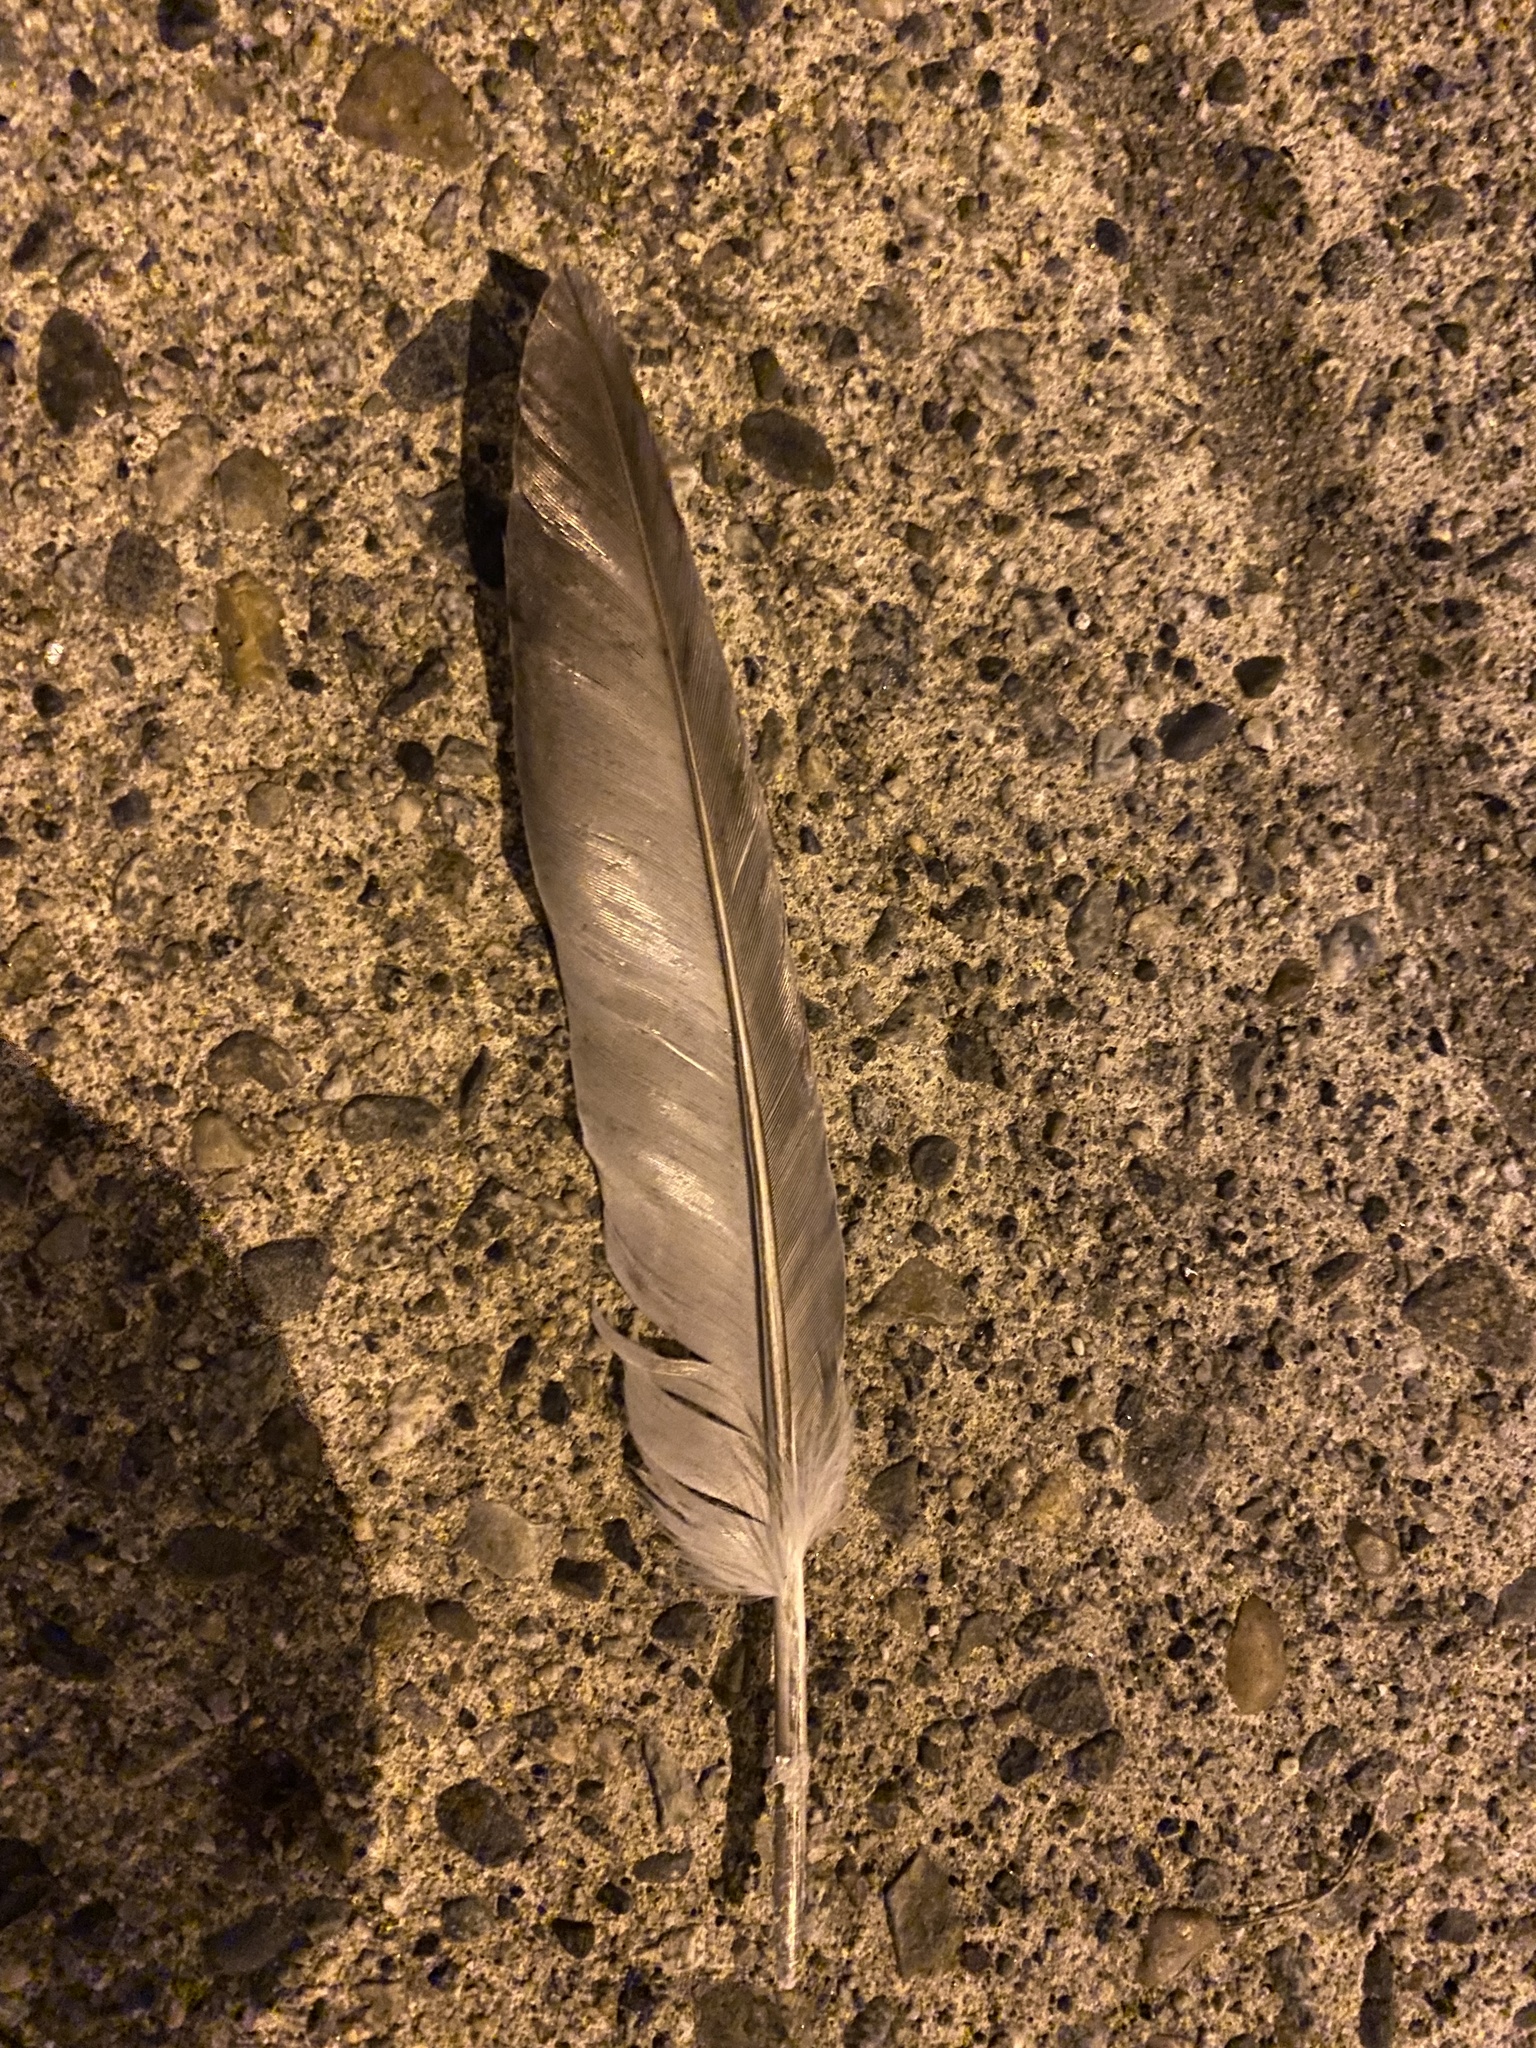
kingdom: Animalia
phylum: Chordata
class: Aves
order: Columbiformes
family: Columbidae
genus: Columba
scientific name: Columba livia
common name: Rock pigeon
